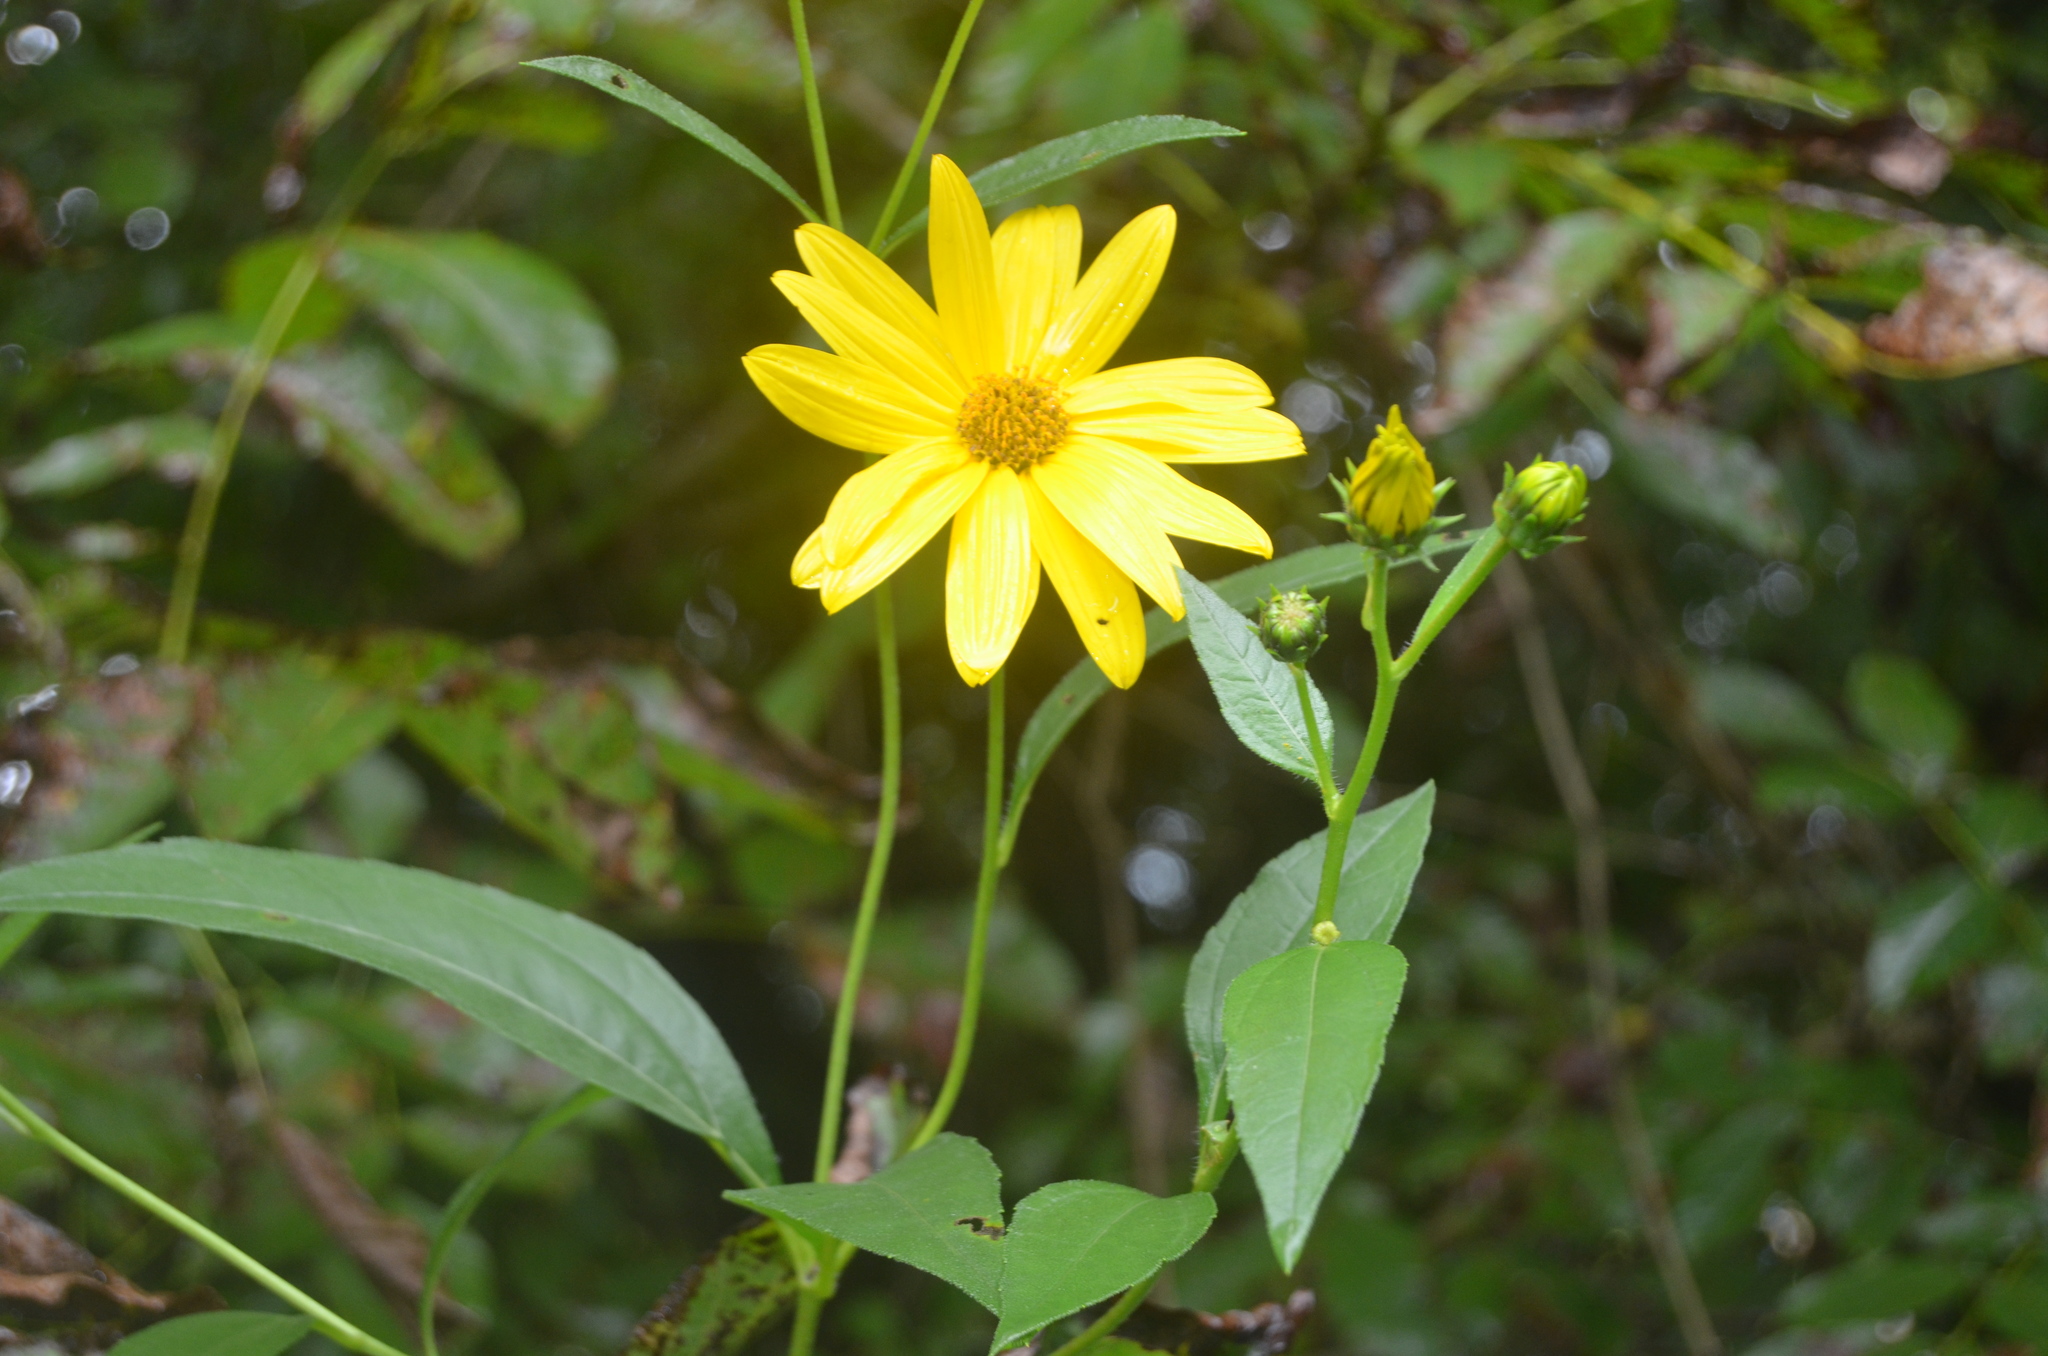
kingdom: Plantae
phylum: Tracheophyta
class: Magnoliopsida
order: Asterales
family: Asteraceae
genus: Helianthus
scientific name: Helianthus tuberosus
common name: Jerusalem artichoke
